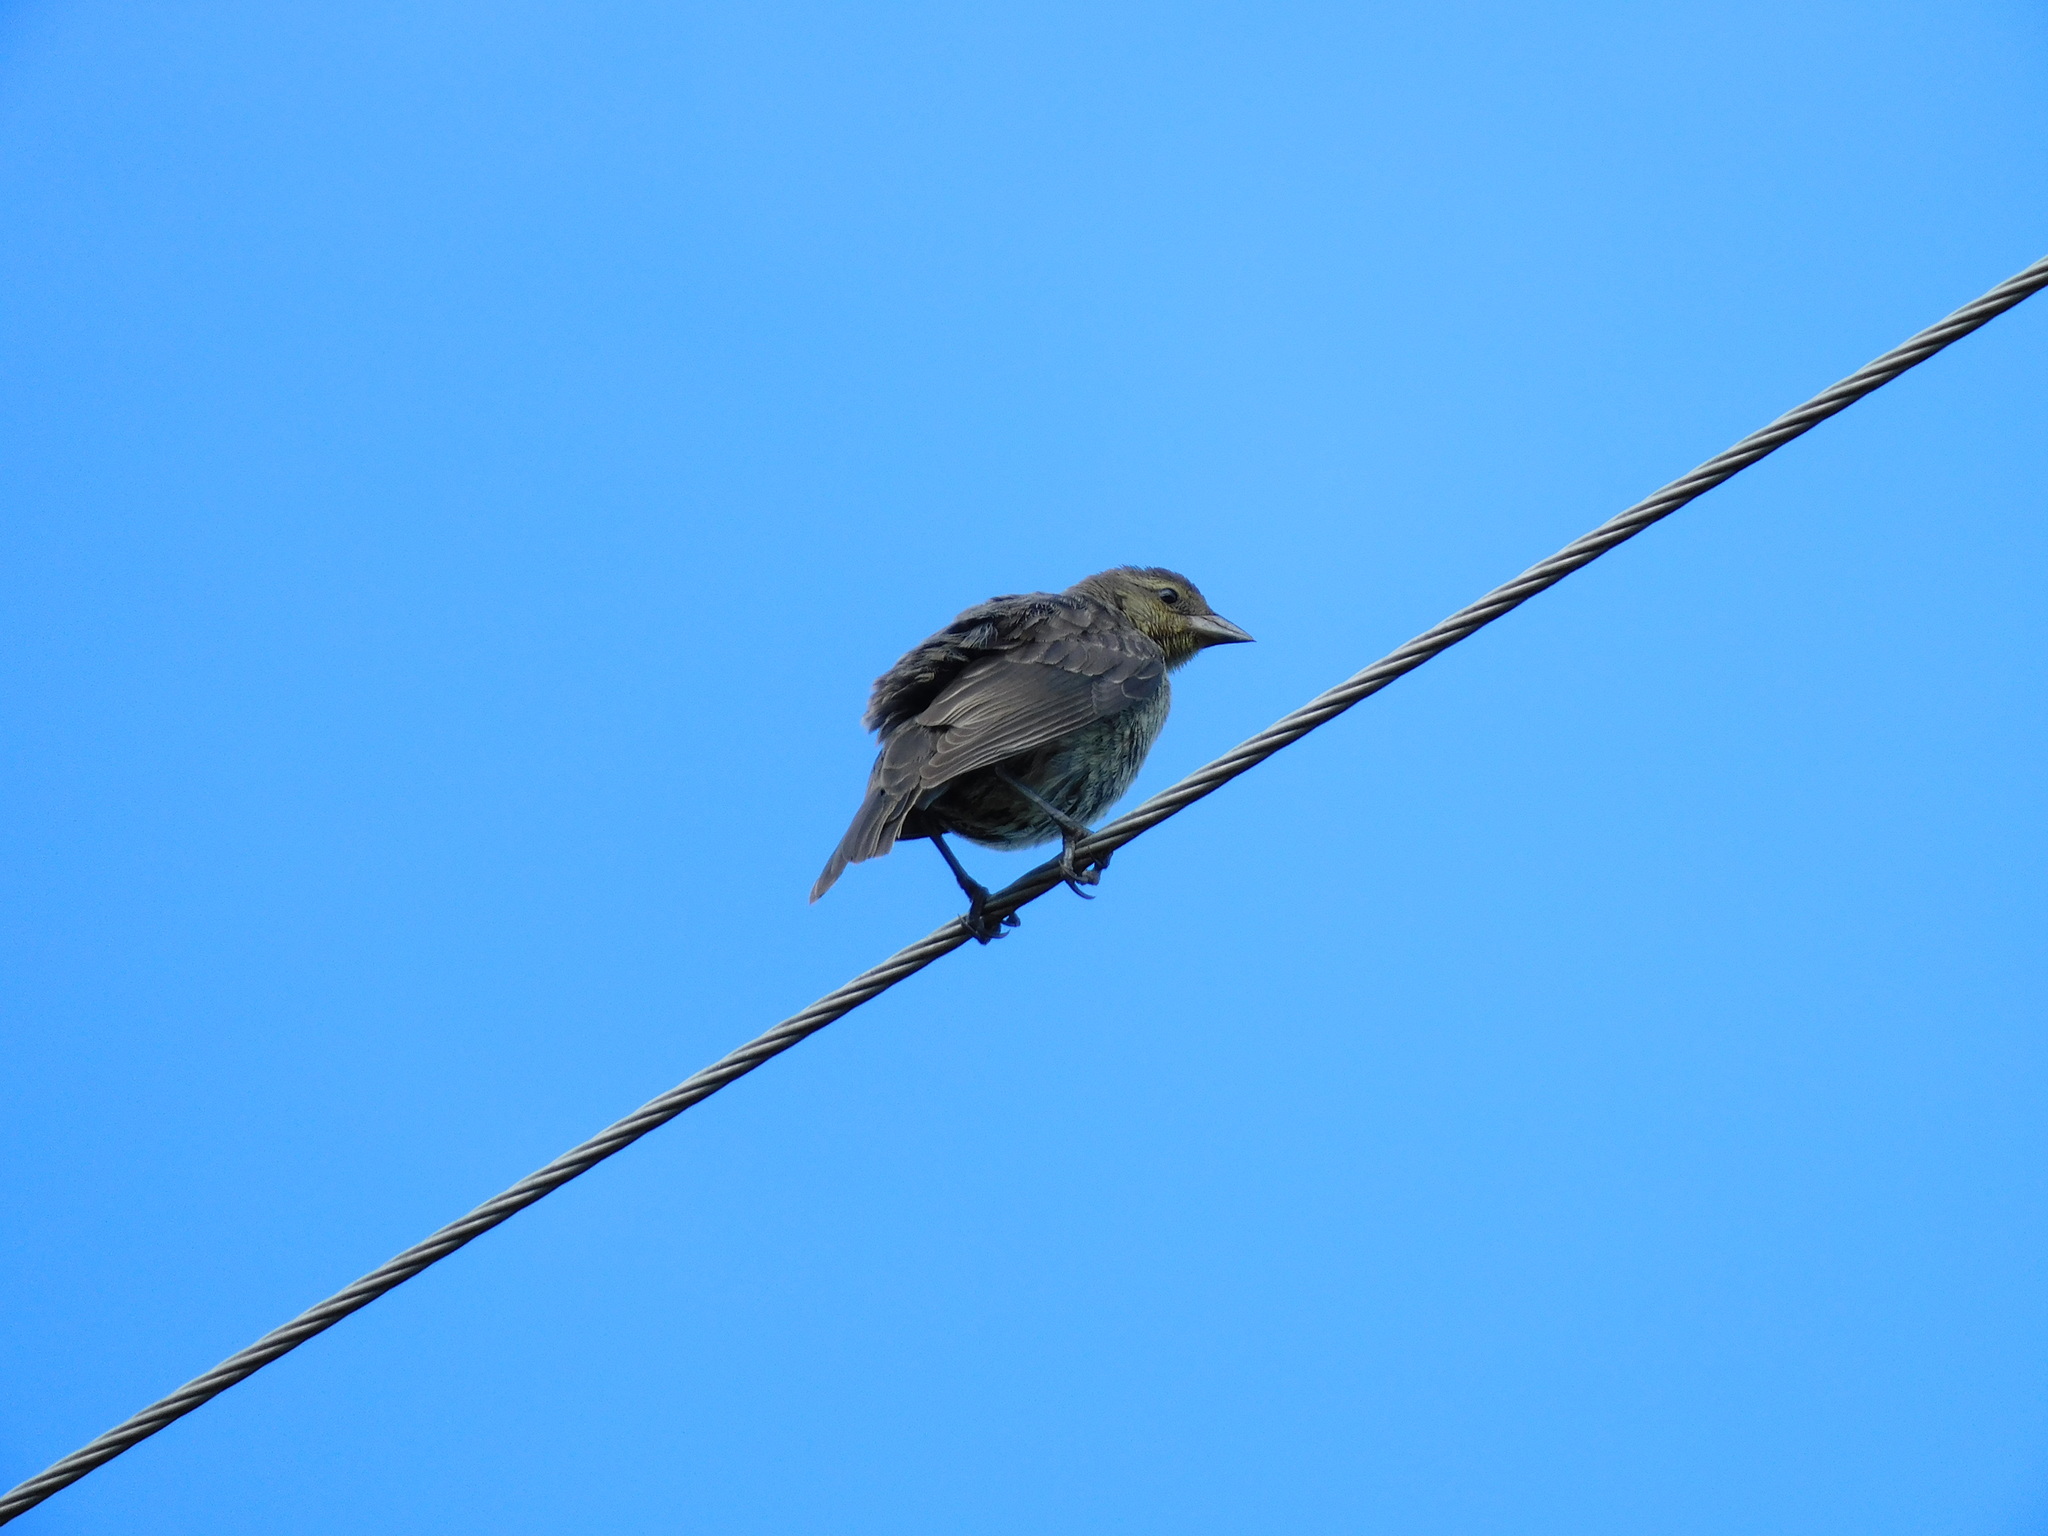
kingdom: Animalia
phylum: Chordata
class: Aves
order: Passeriformes
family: Icteridae
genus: Molothrus
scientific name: Molothrus bonariensis
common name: Shiny cowbird
